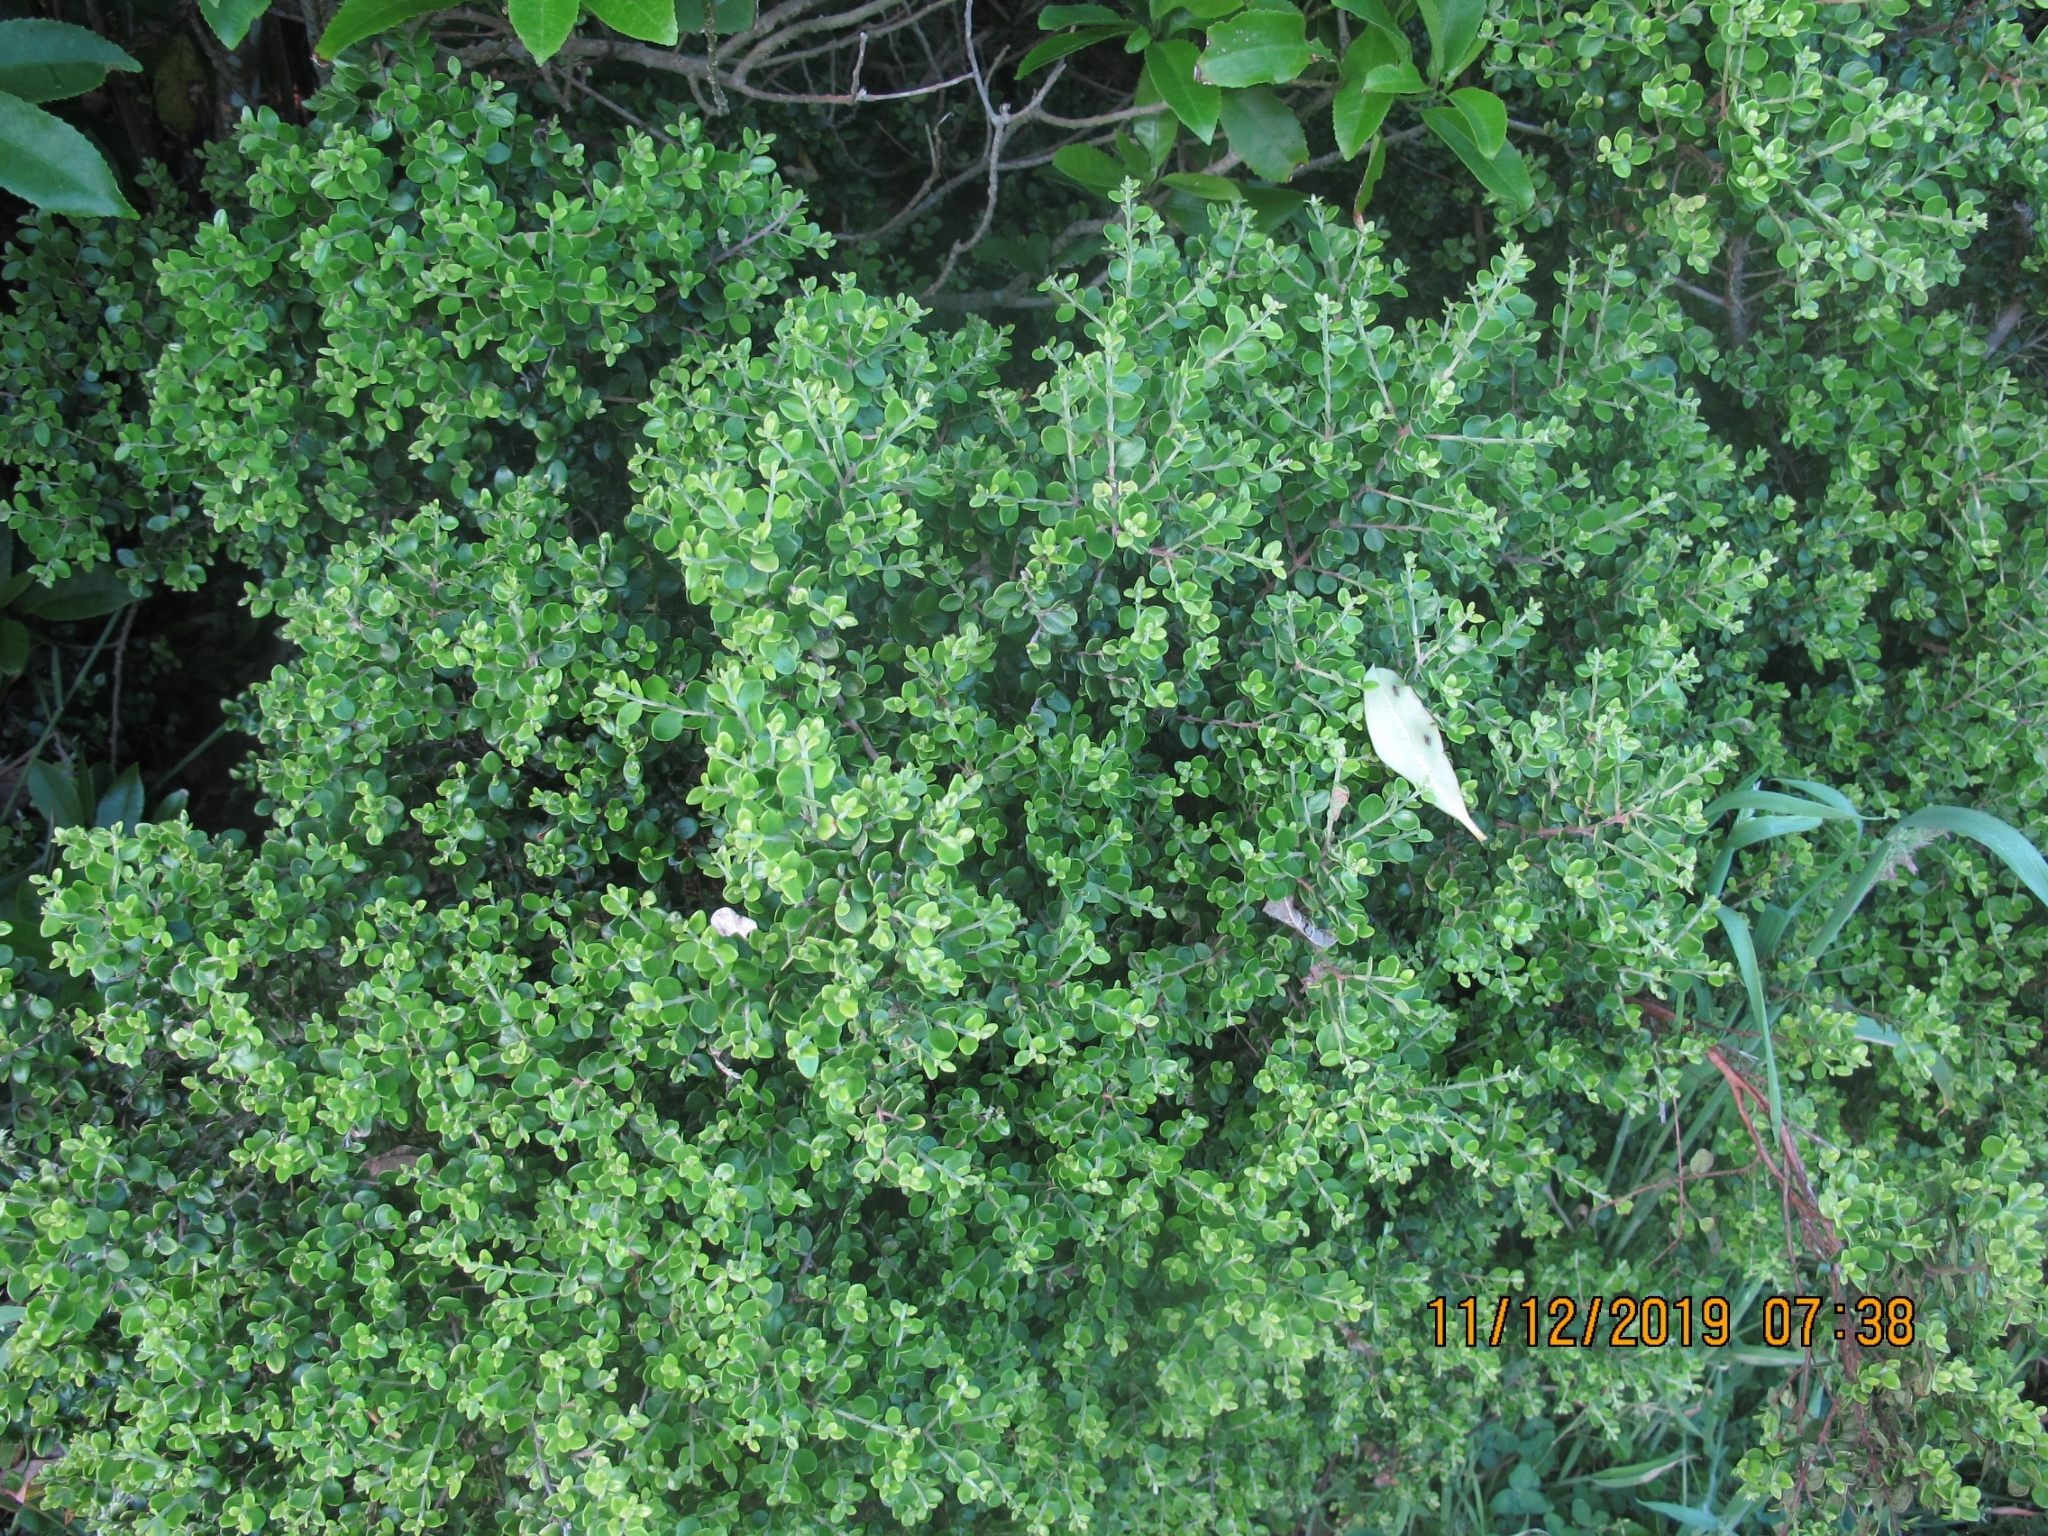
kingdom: Plantae
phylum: Tracheophyta
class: Magnoliopsida
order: Myrtales
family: Myrtaceae
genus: Metrosideros
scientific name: Metrosideros perforata
